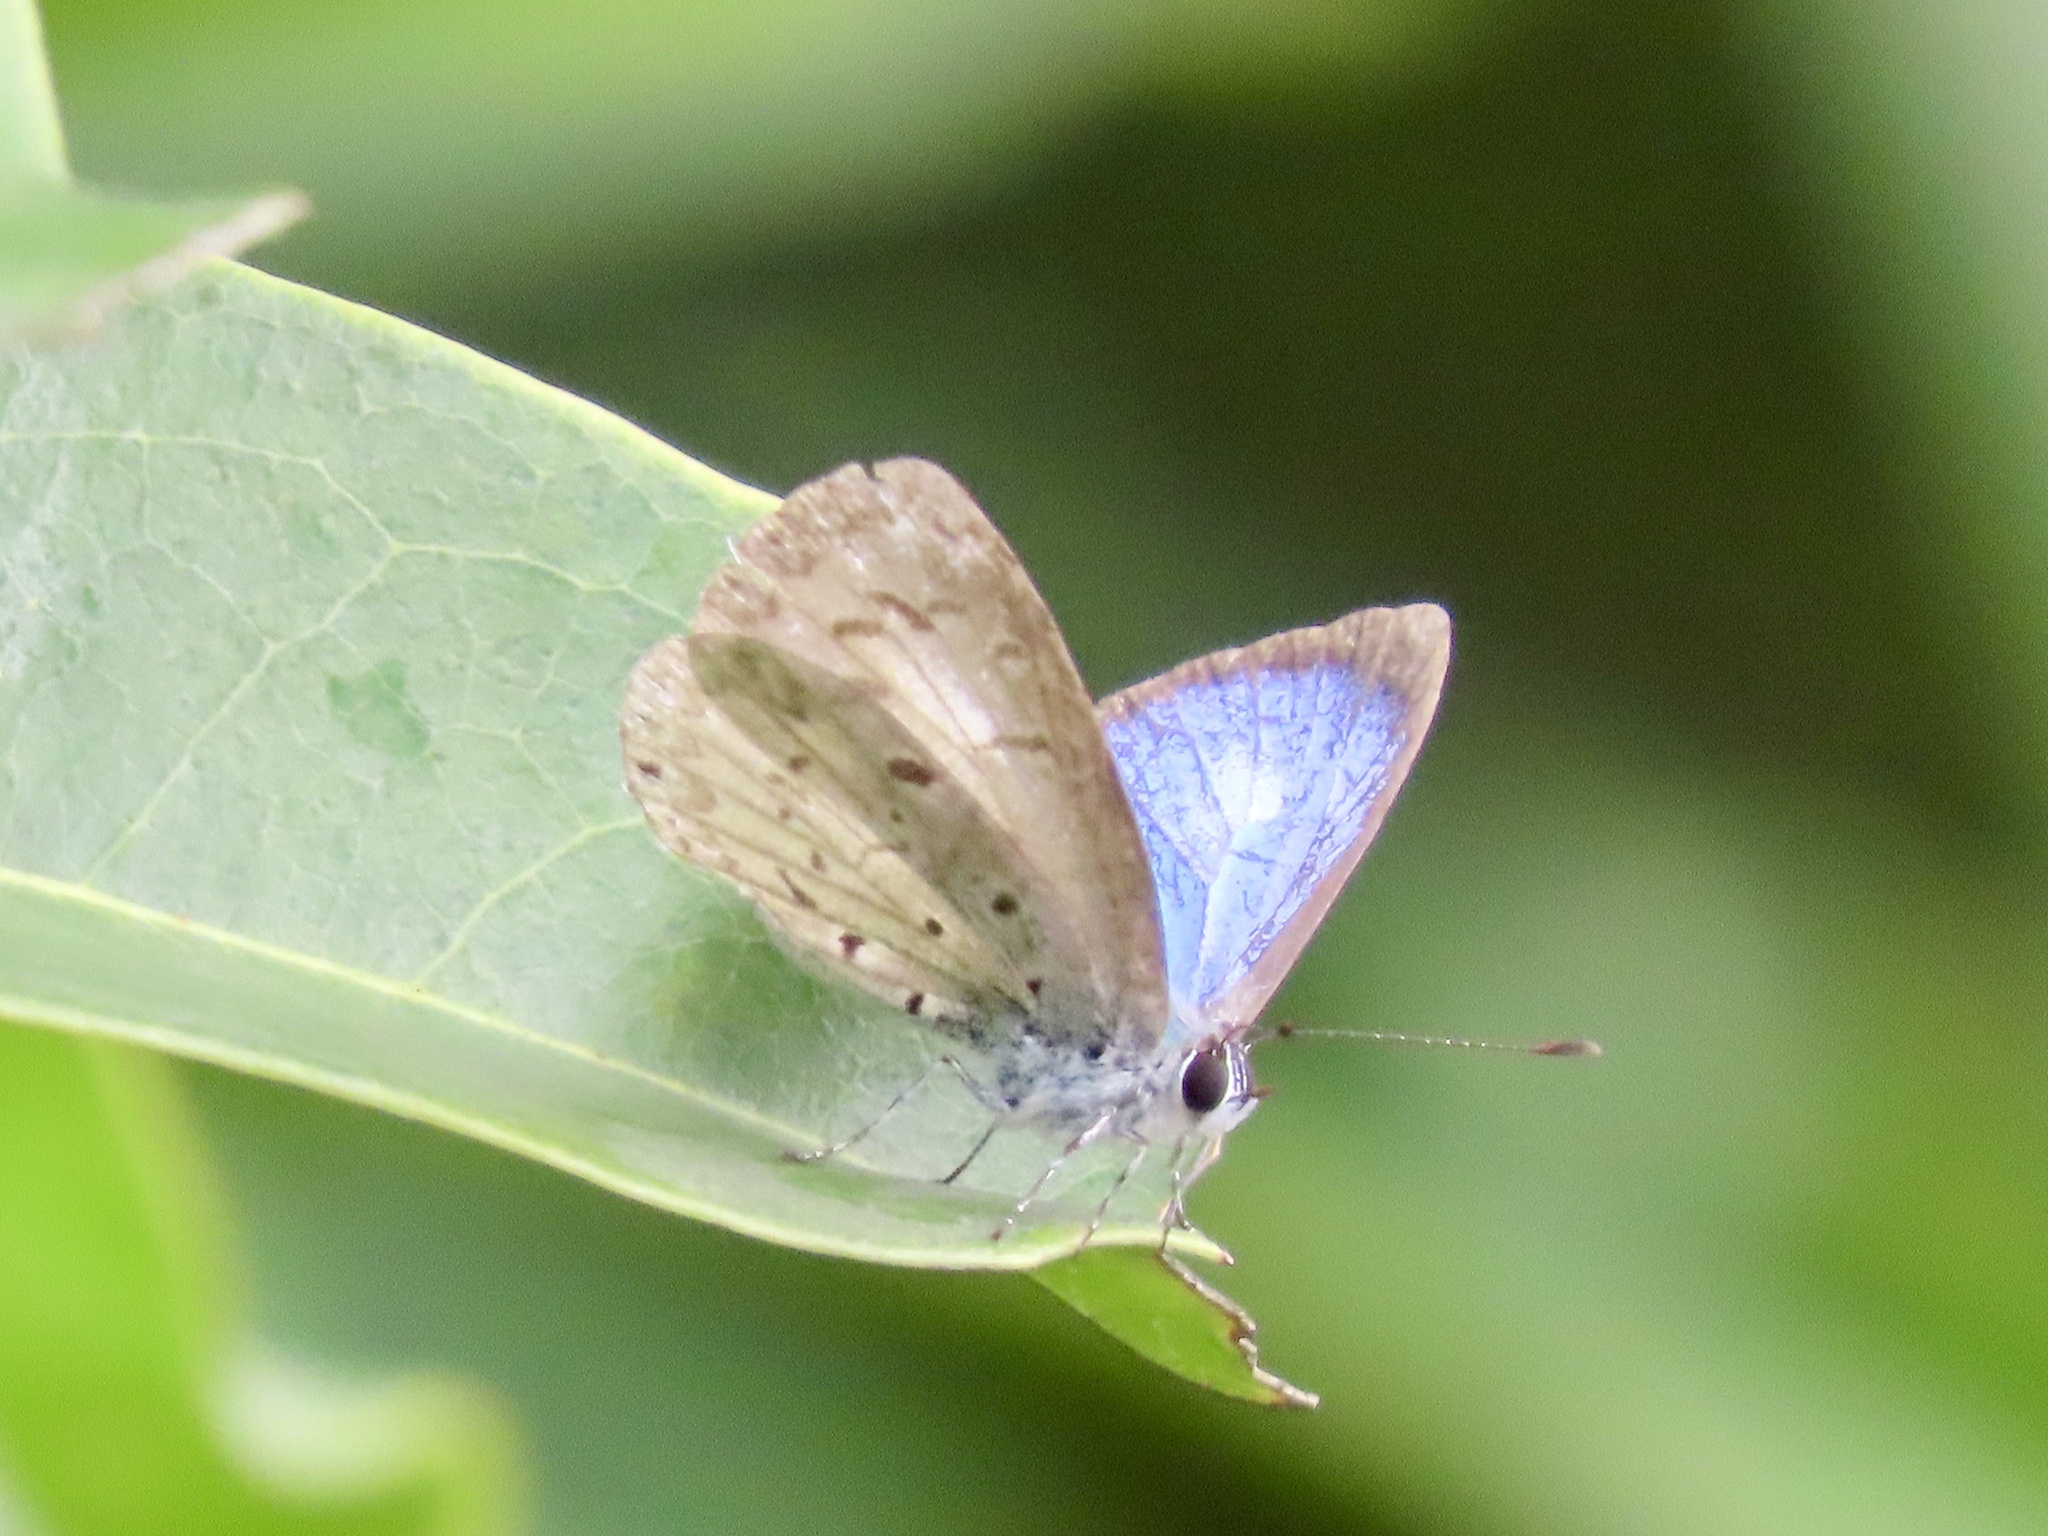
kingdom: Animalia
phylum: Arthropoda
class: Insecta
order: Lepidoptera
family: Lycaenidae
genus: Acytolepis
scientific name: Acytolepis puspa
